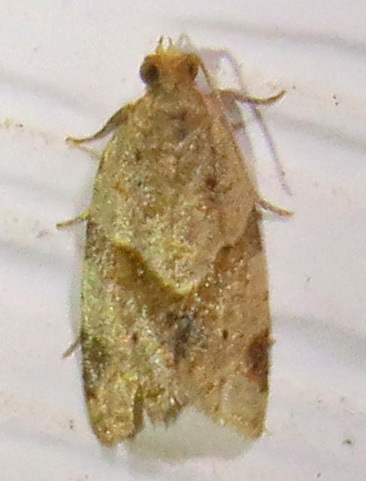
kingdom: Animalia
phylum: Arthropoda
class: Insecta
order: Lepidoptera
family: Tortricidae
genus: Clepsis
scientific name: Clepsis peritana
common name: Garden tortrix
